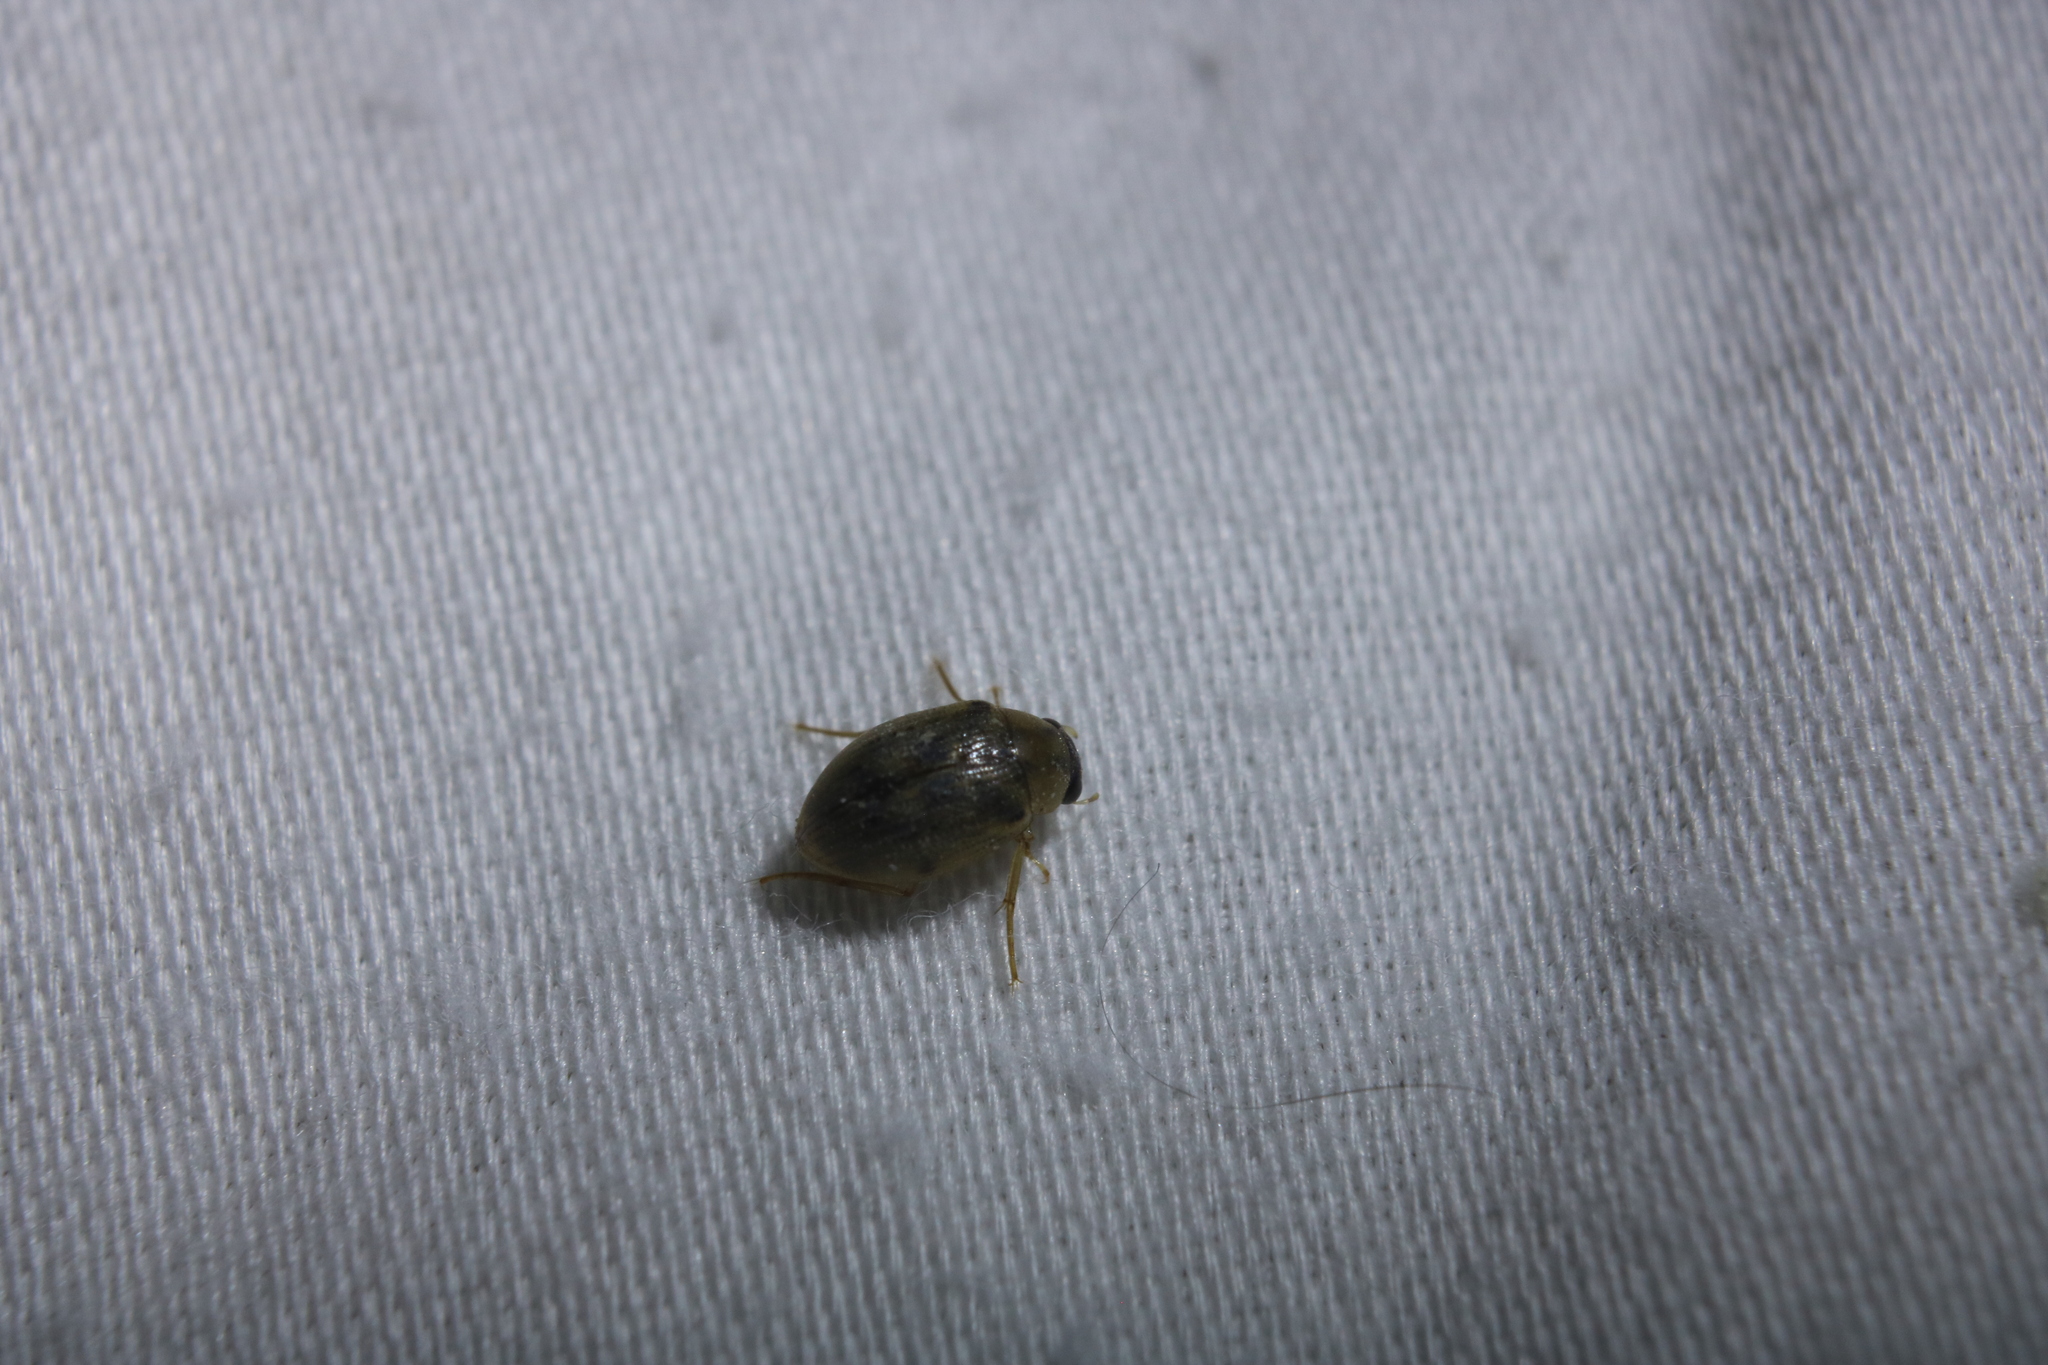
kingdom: Animalia
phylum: Arthropoda
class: Insecta
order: Coleoptera
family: Hydrophilidae
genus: Berosus
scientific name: Berosus
